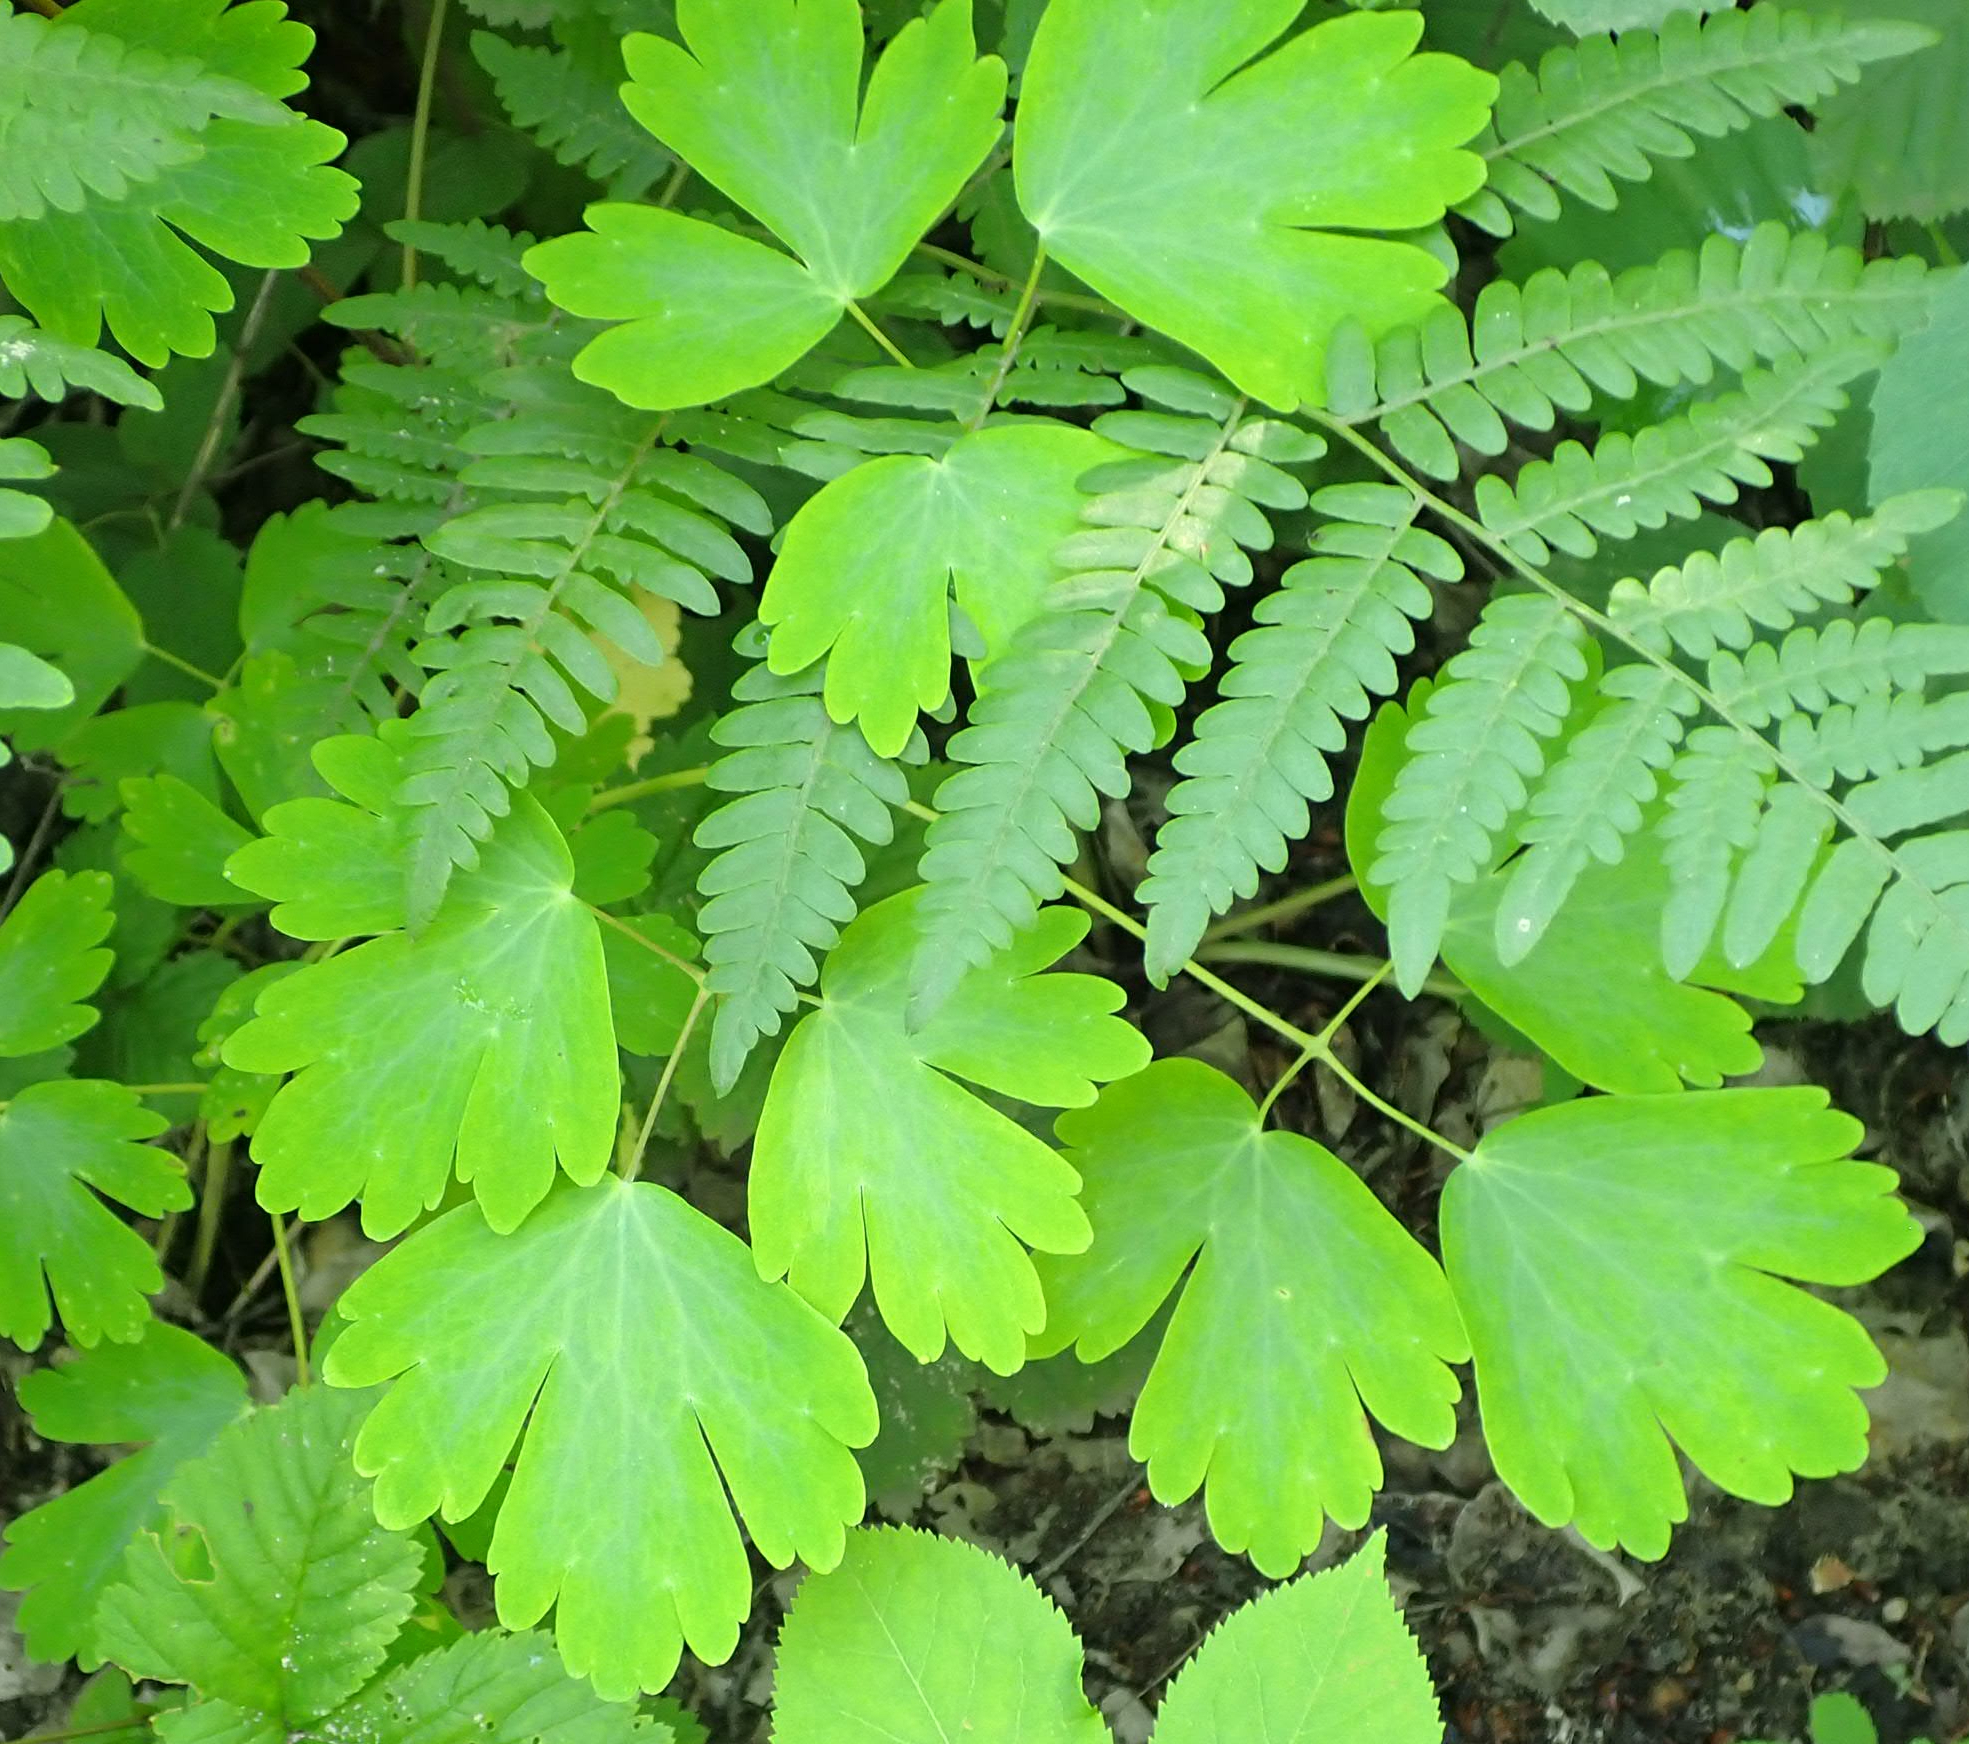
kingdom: Plantae
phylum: Tracheophyta
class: Magnoliopsida
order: Ranunculales
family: Ranunculaceae
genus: Aquilegia
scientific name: Aquilegia canadensis
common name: American columbine
